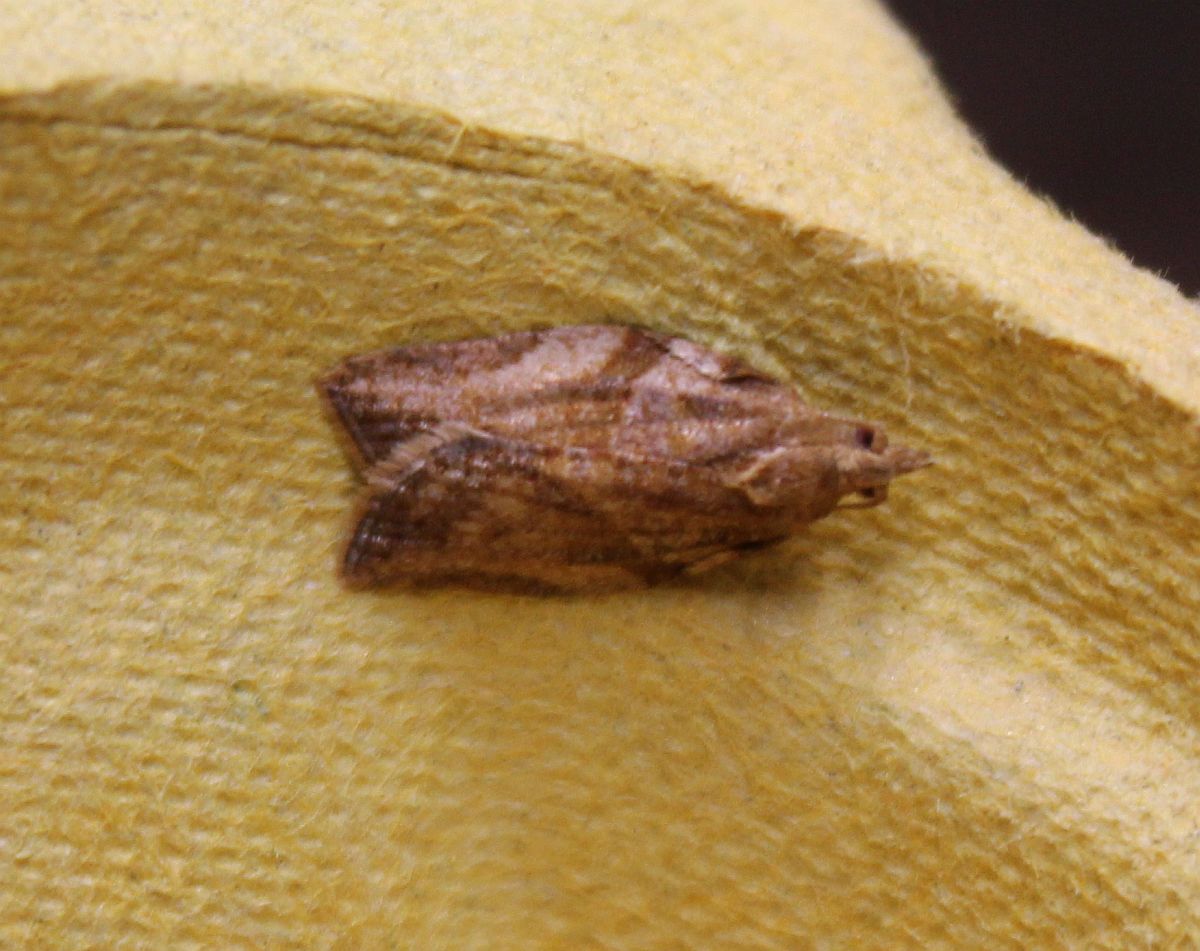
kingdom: Animalia
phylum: Arthropoda
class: Insecta
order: Lepidoptera
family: Tortricidae
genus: Epiphyas
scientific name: Epiphyas postvittana
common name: Light brown apple moth
